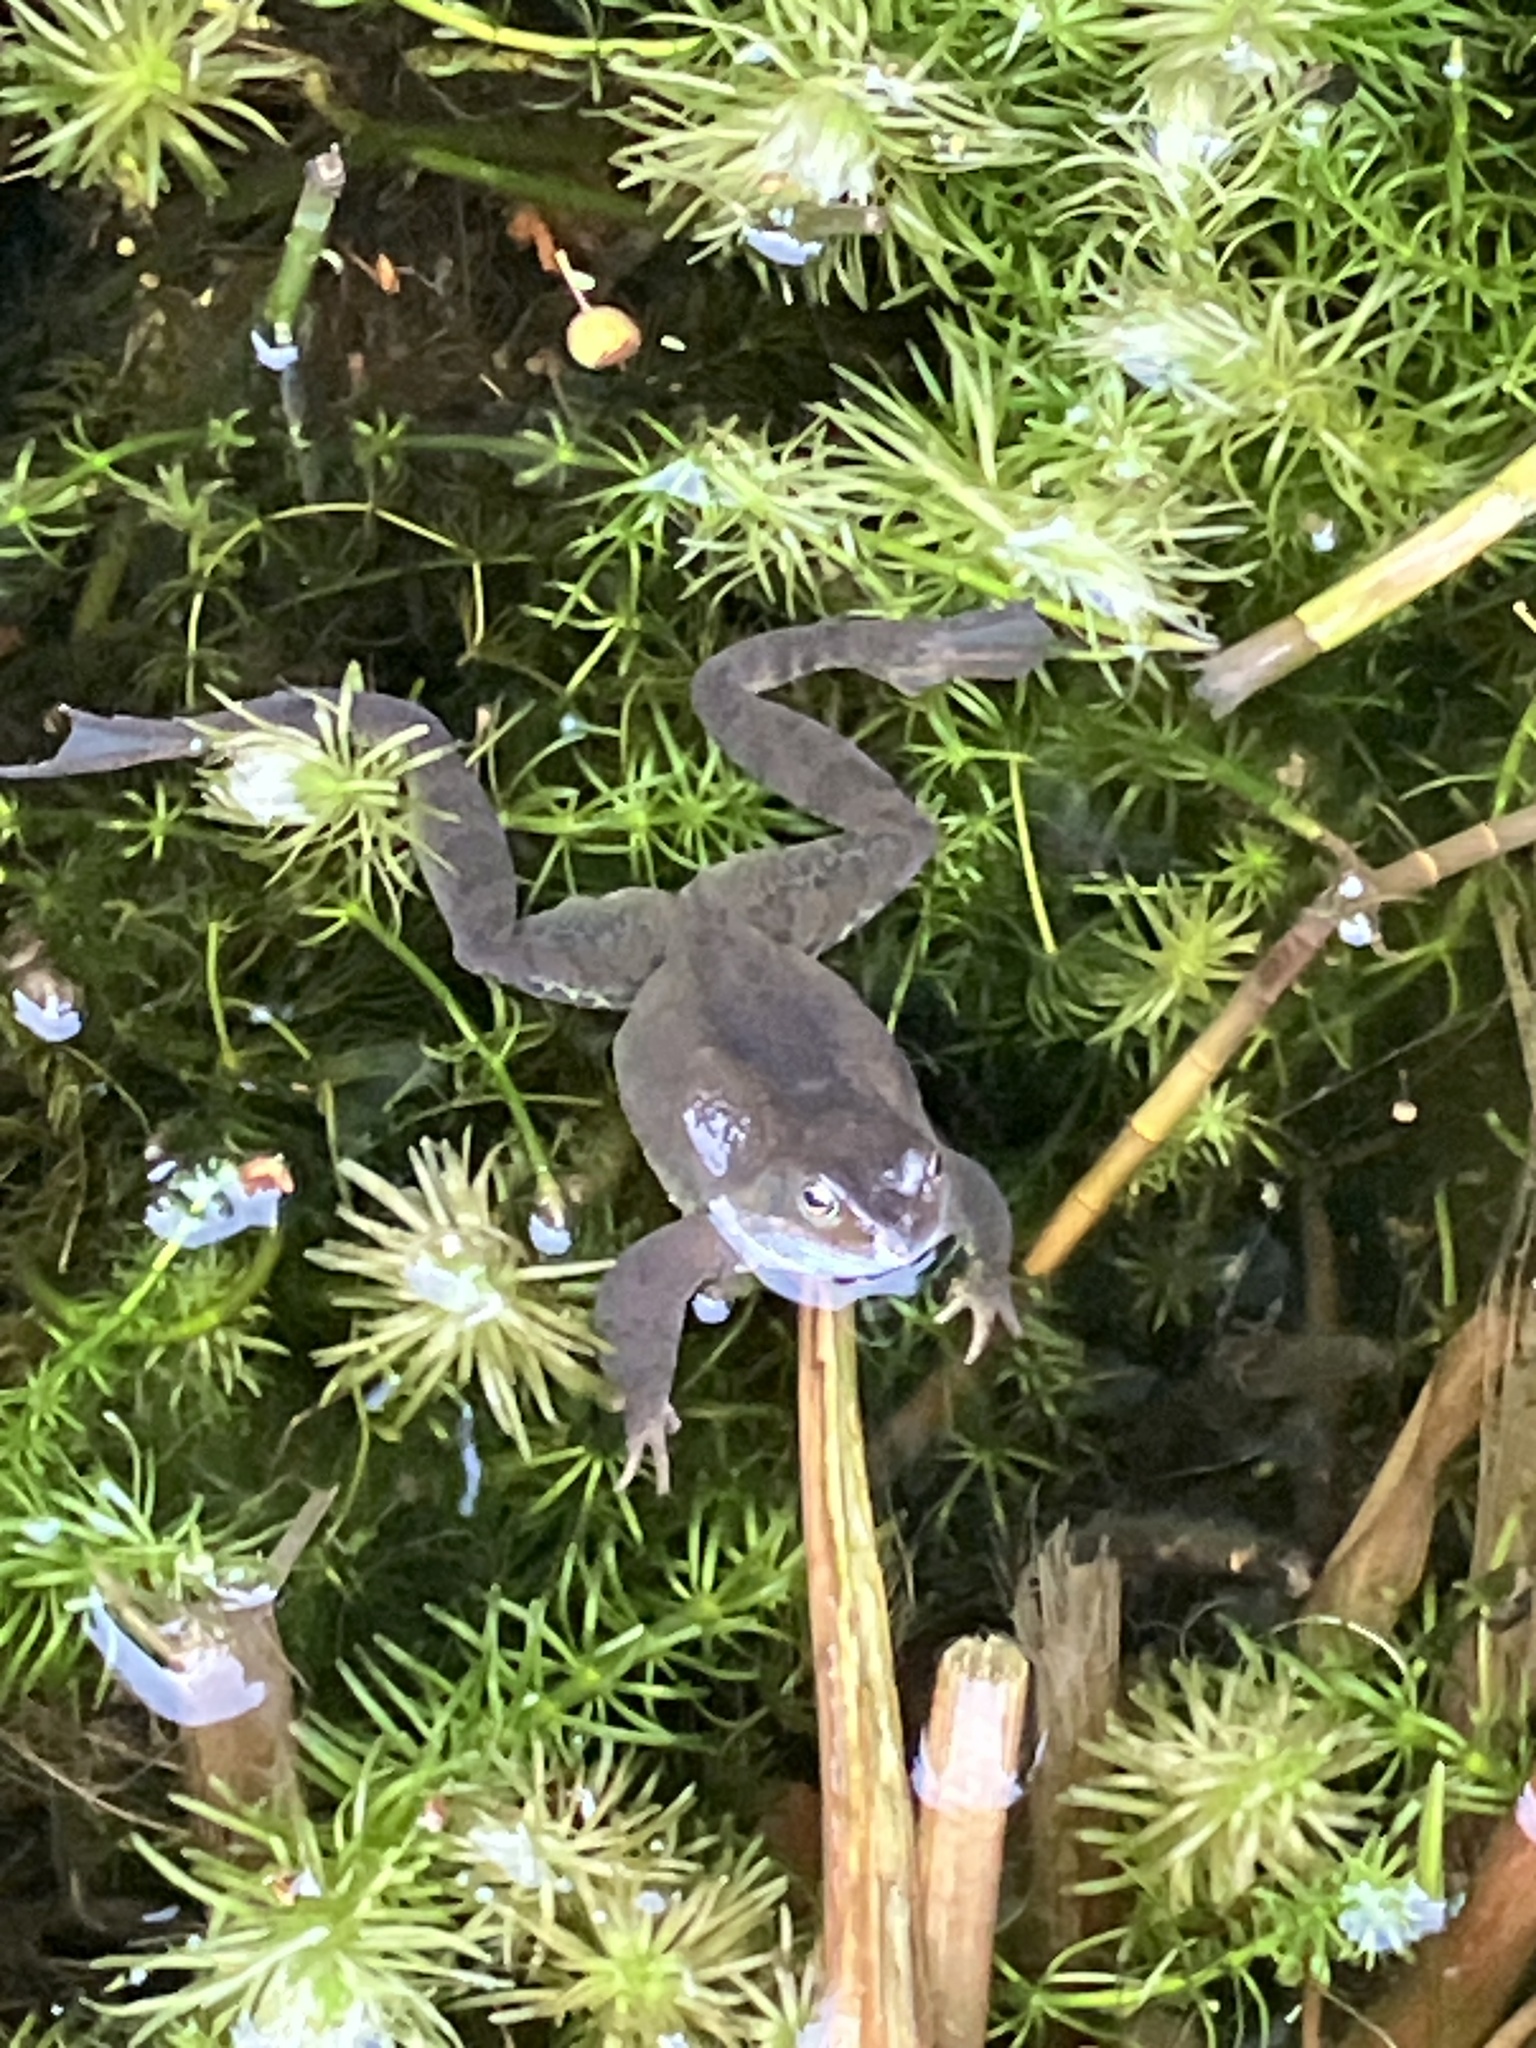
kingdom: Animalia
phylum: Chordata
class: Amphibia
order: Anura
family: Ranidae
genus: Rana
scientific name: Rana temporaria
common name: Common frog
